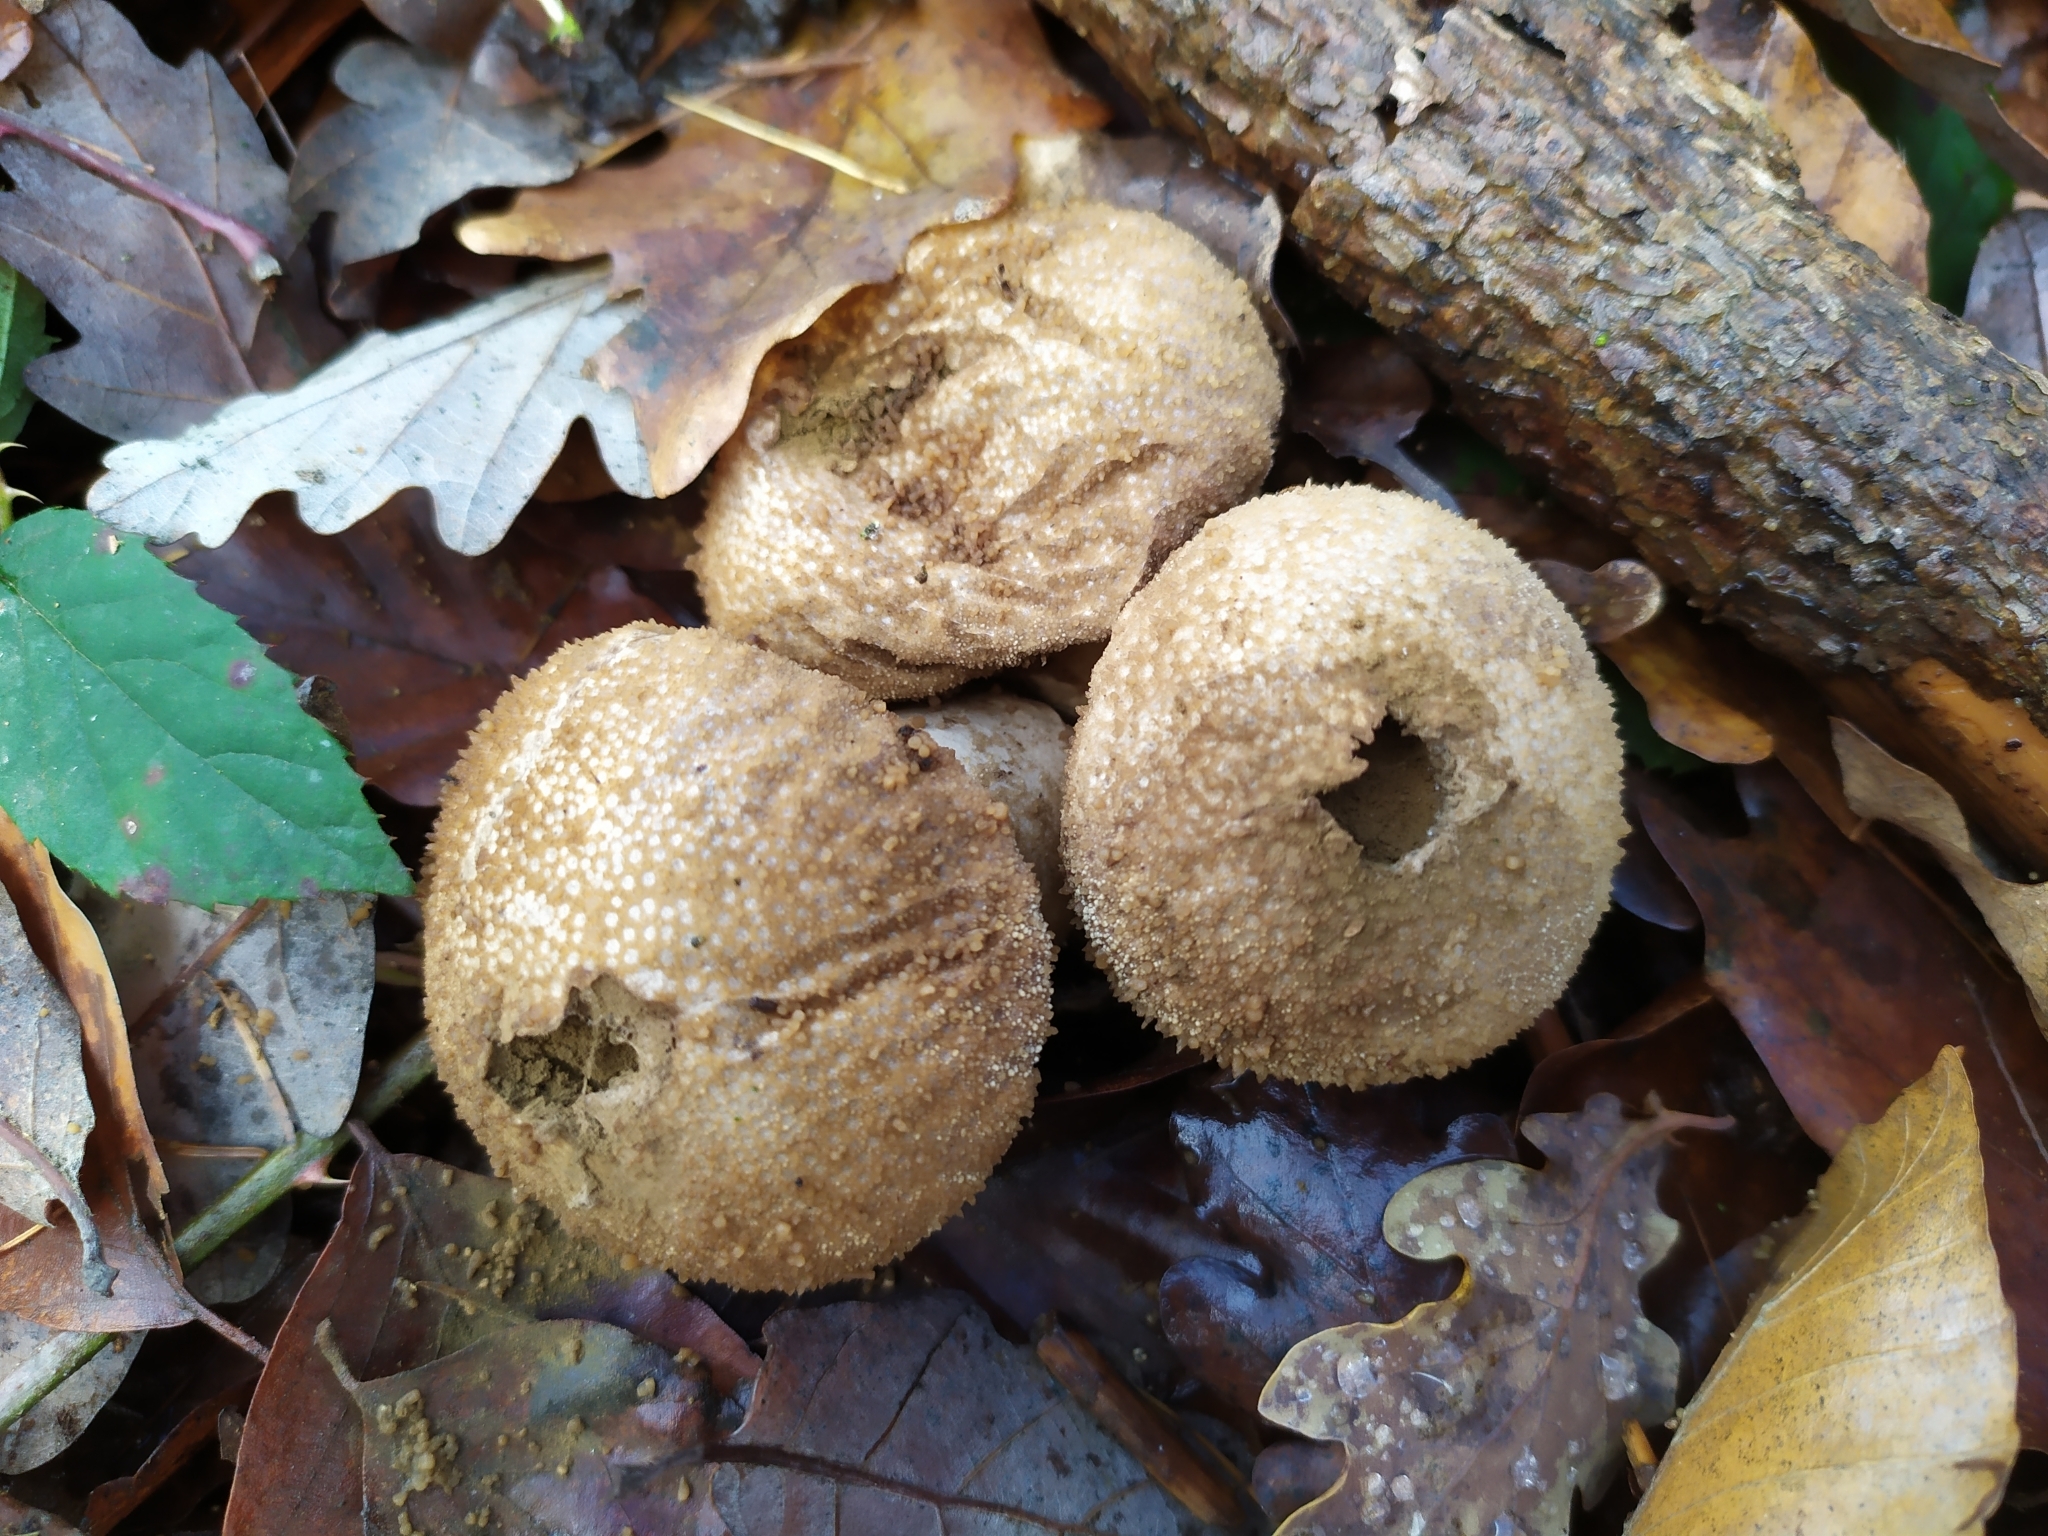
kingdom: Fungi
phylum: Basidiomycota
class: Agaricomycetes
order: Agaricales
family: Lycoperdaceae
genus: Lycoperdon
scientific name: Lycoperdon perlatum
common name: Common puffball
